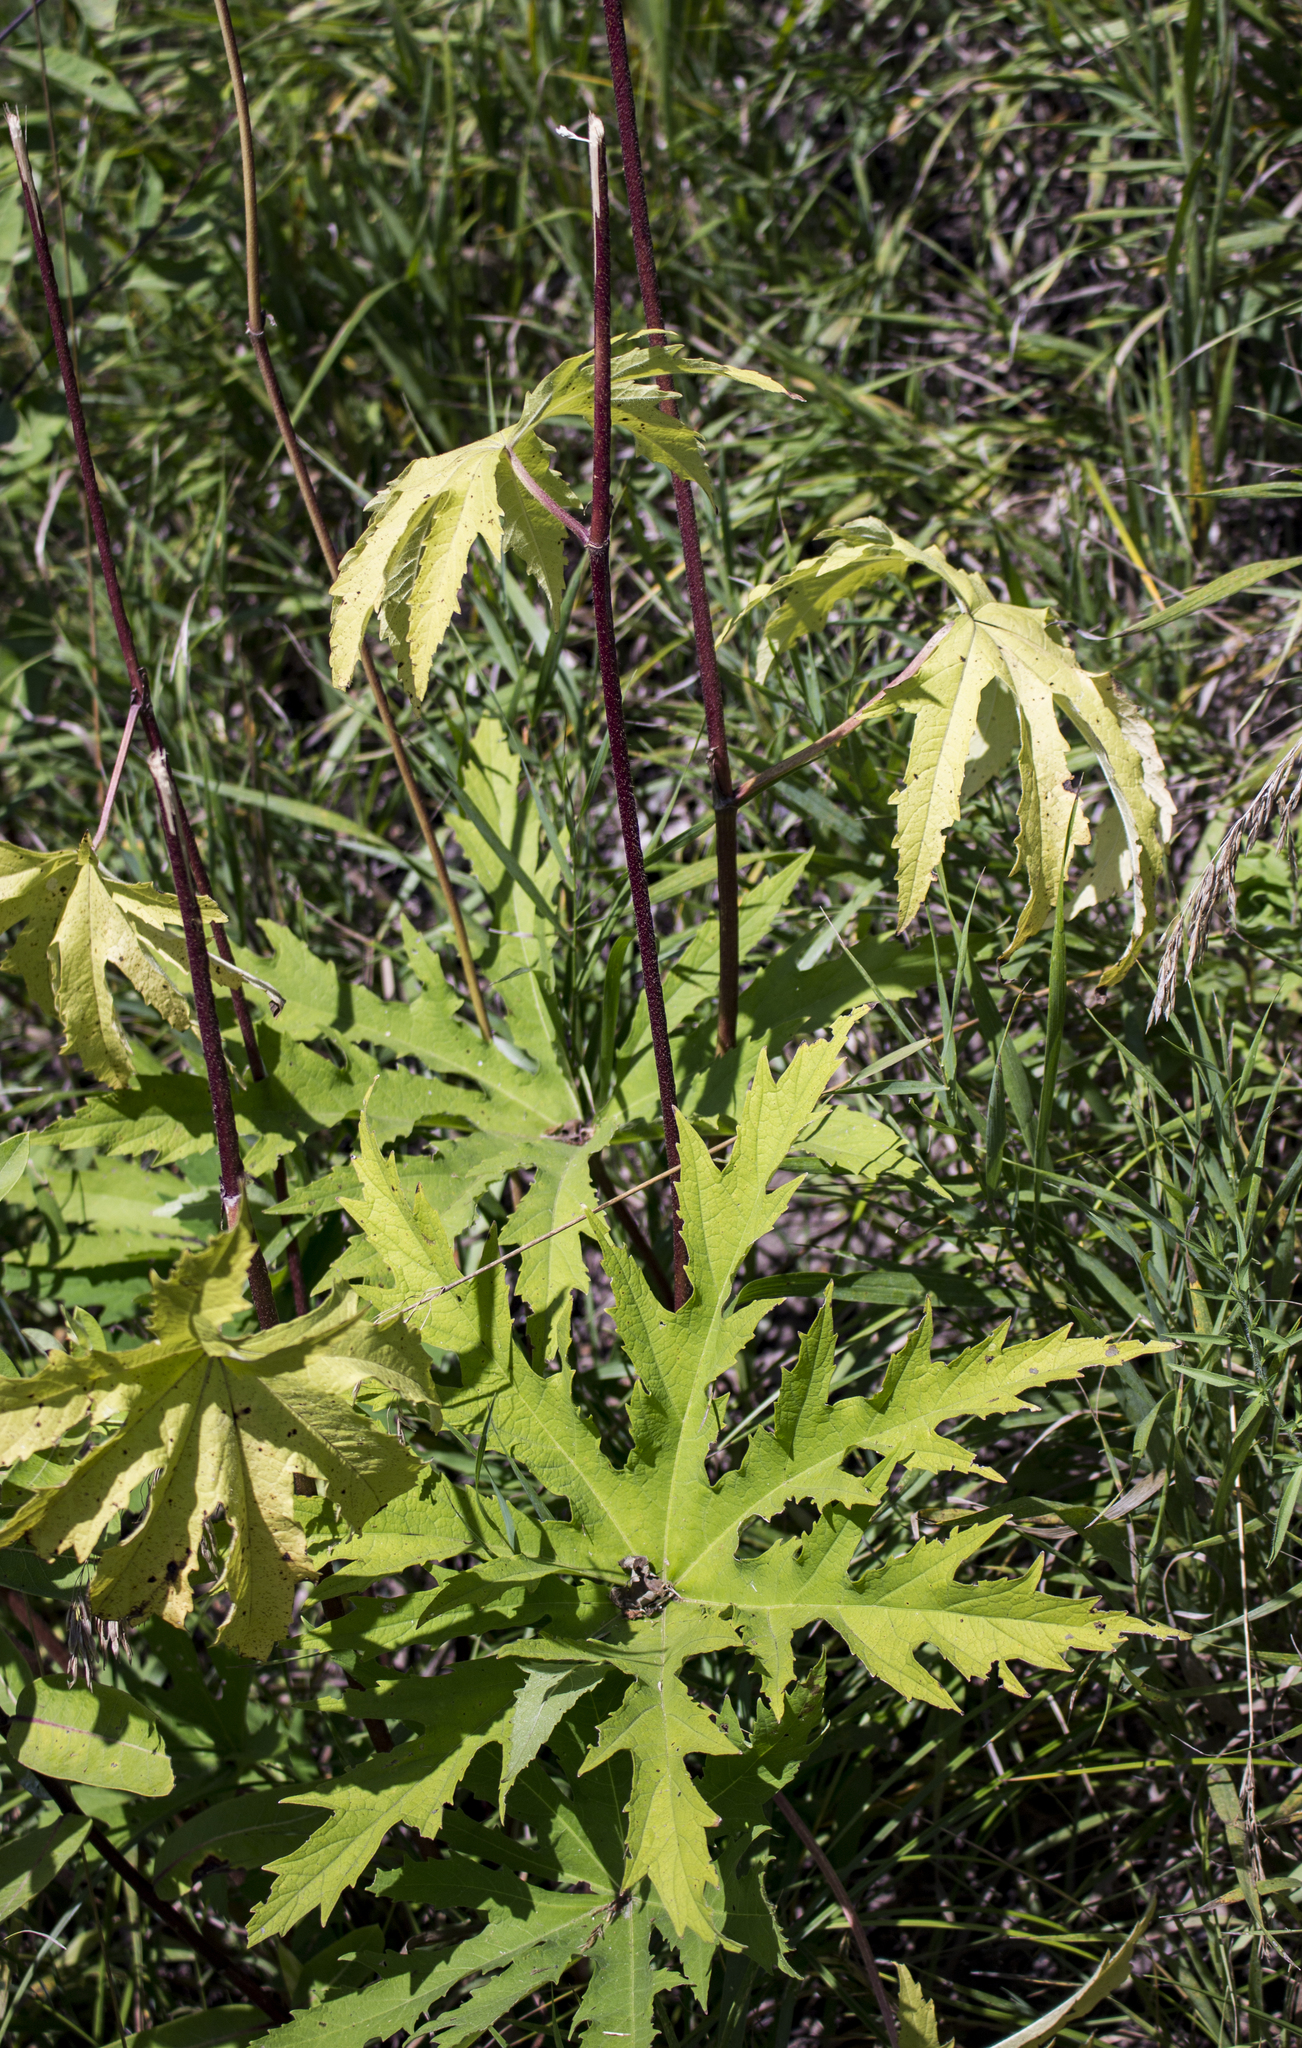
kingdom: Plantae
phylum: Tracheophyta
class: Magnoliopsida
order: Malvales
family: Malvaceae
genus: Napaea
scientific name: Napaea dioica
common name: Glade-mallow
